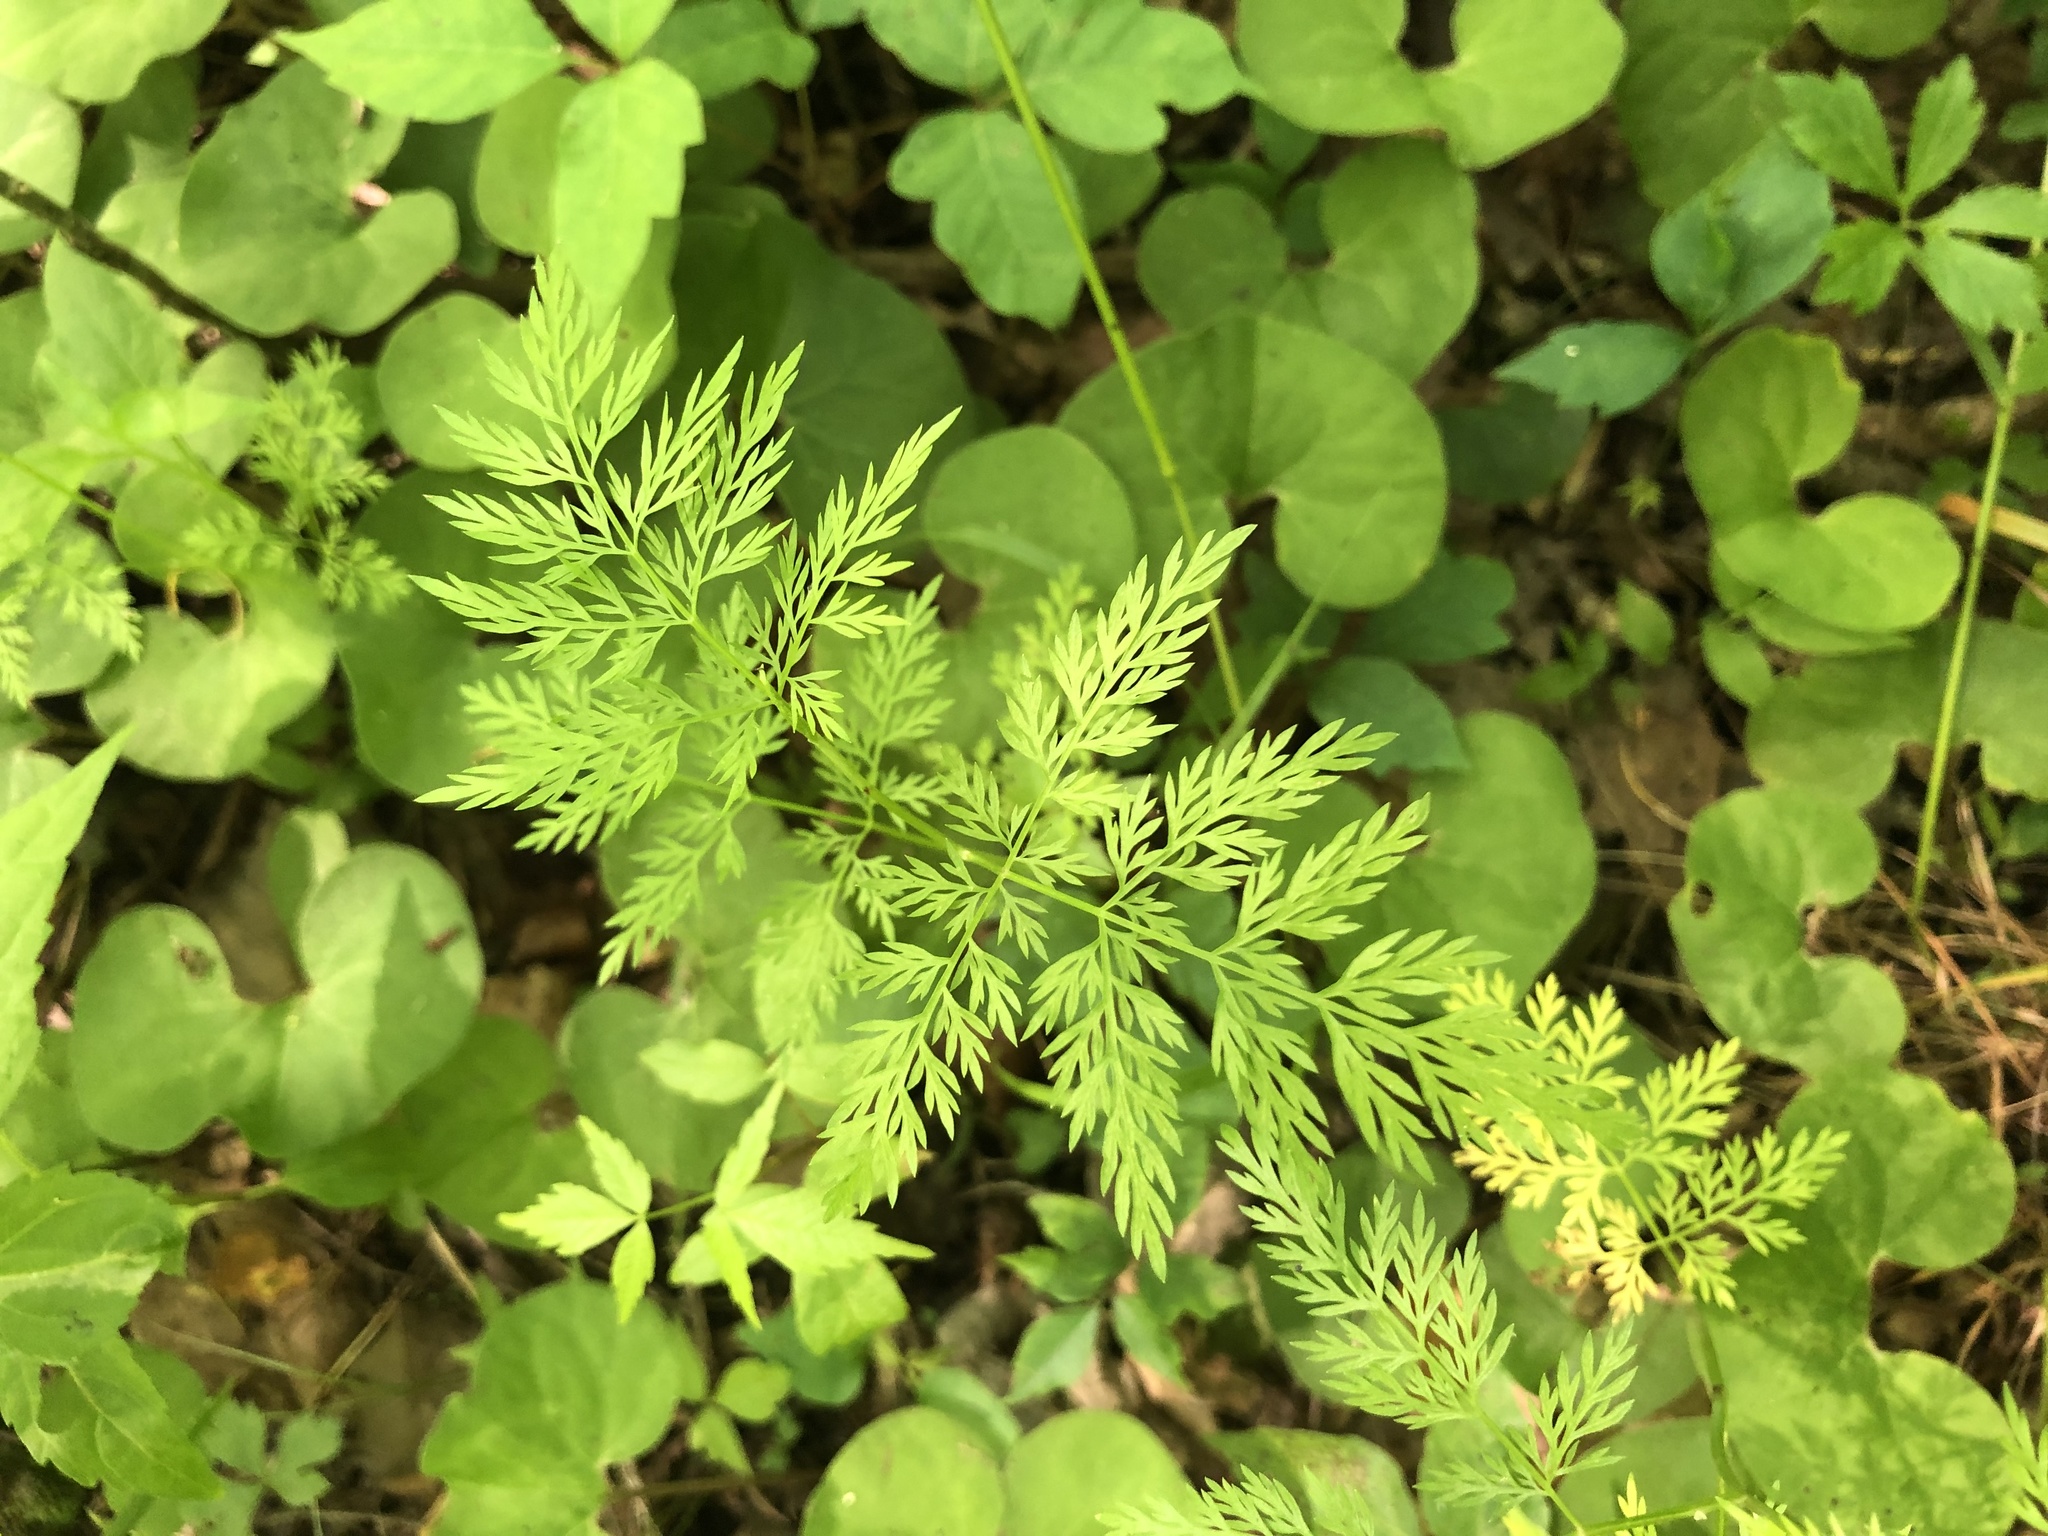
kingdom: Plantae
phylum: Tracheophyta
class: Magnoliopsida
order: Apiales
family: Apiaceae
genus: Trepocarpus
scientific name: Trepocarpus aethusae
